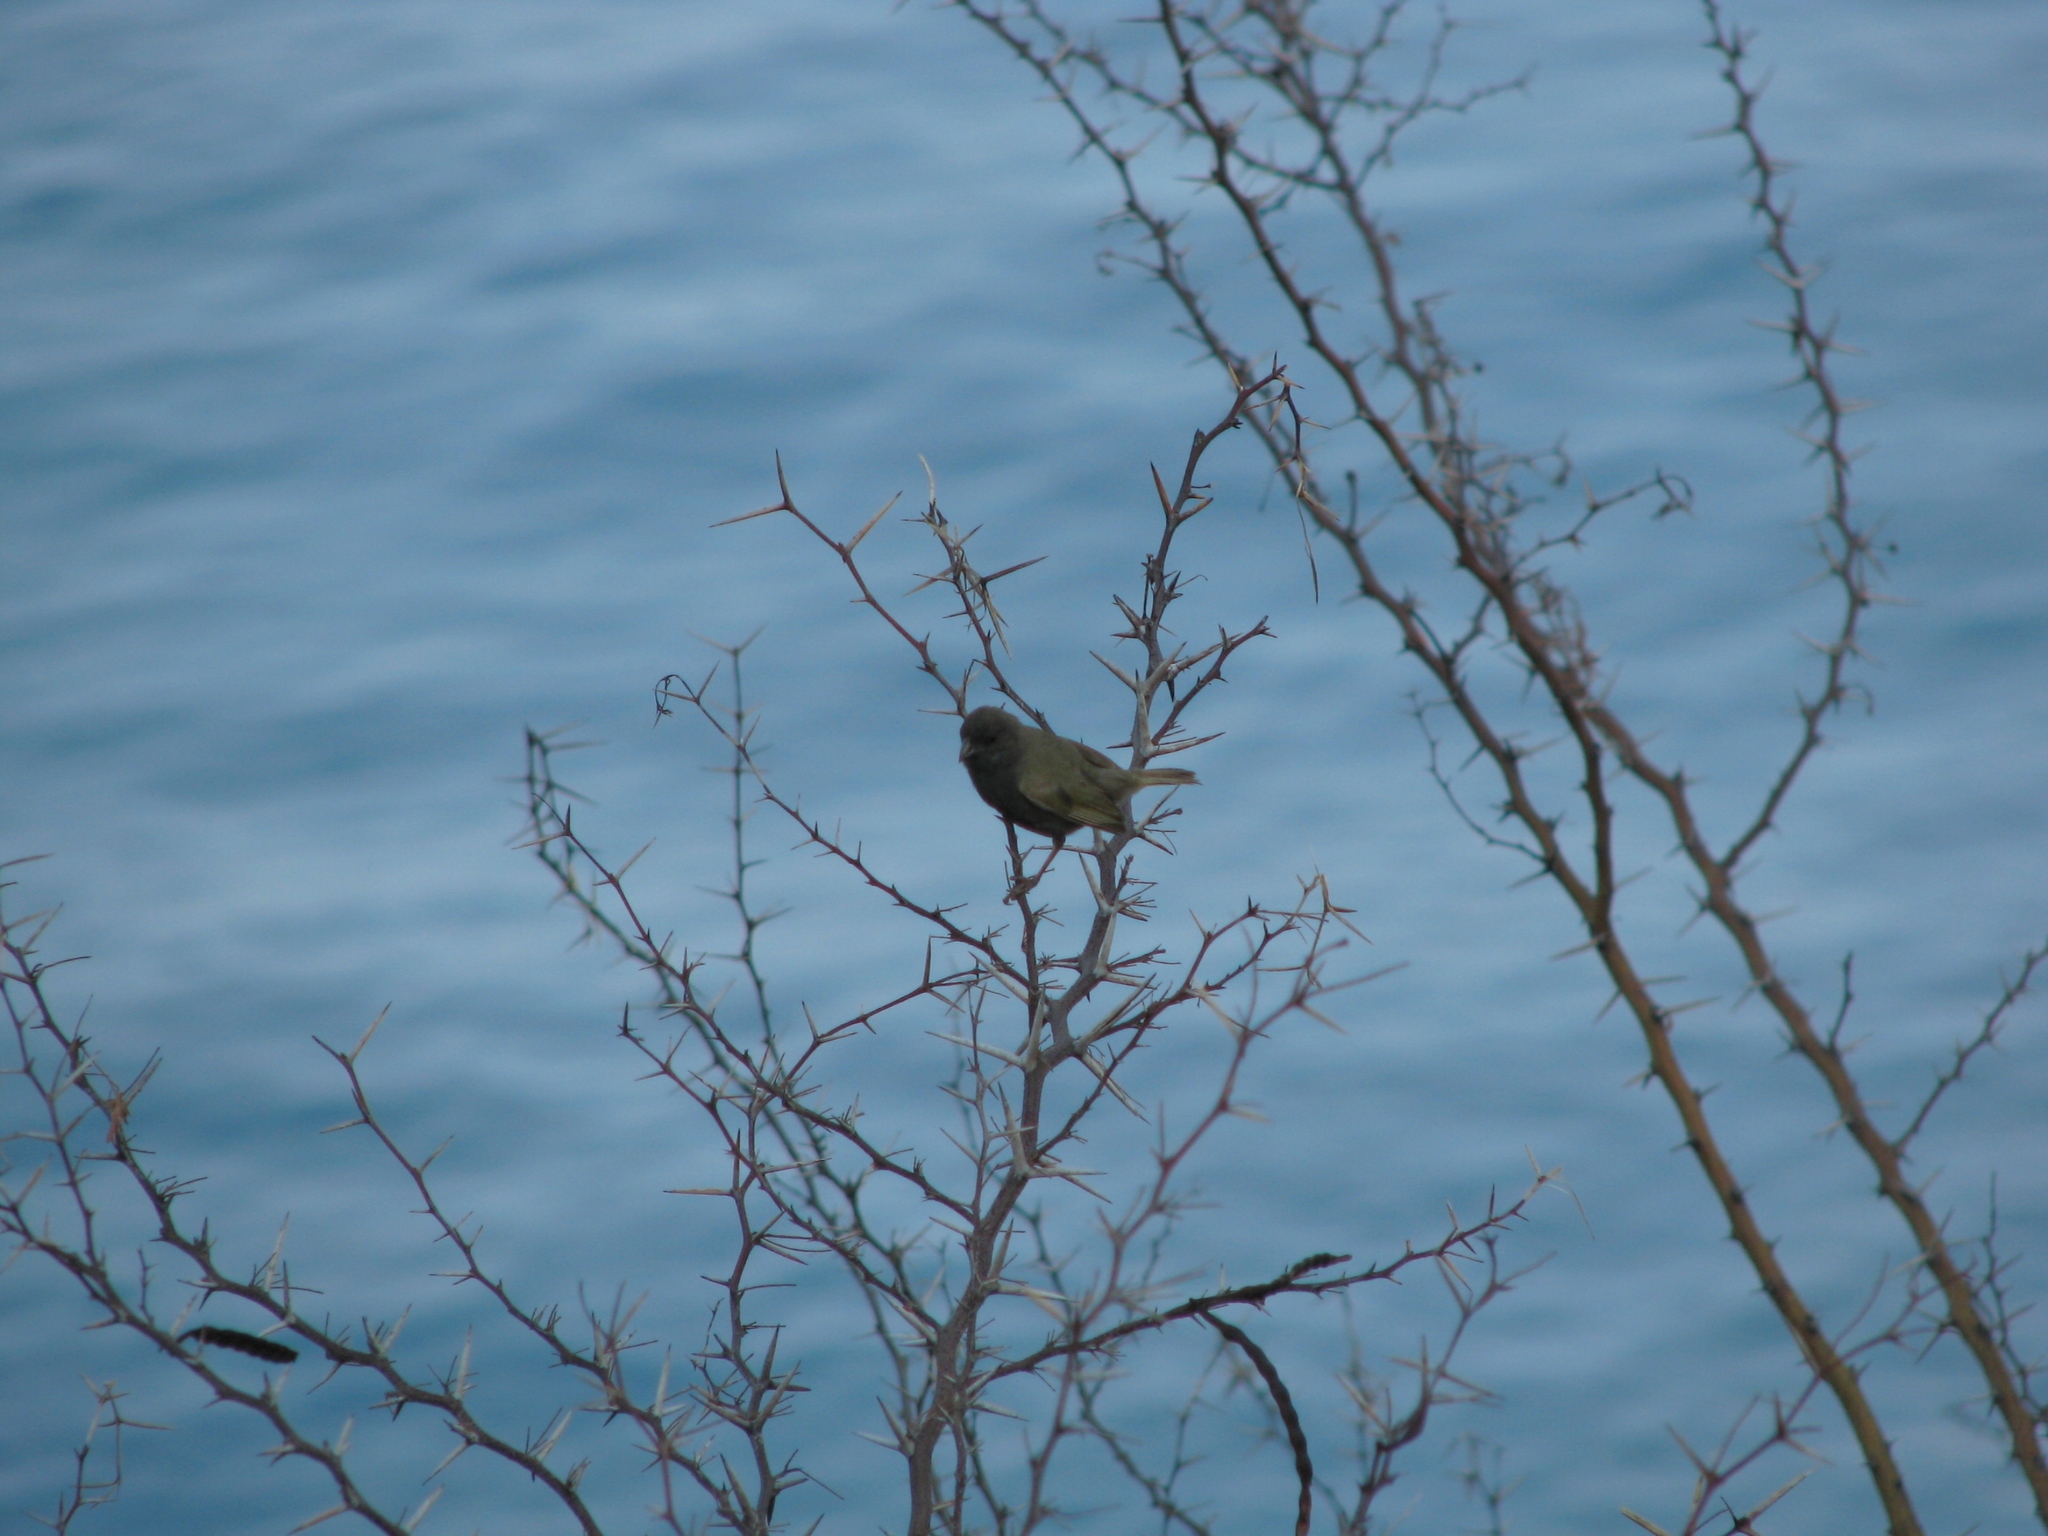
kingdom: Animalia
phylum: Chordata
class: Aves
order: Passeriformes
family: Thraupidae
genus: Melanospiza
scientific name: Melanospiza bicolor
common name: Black-faced grassquit
